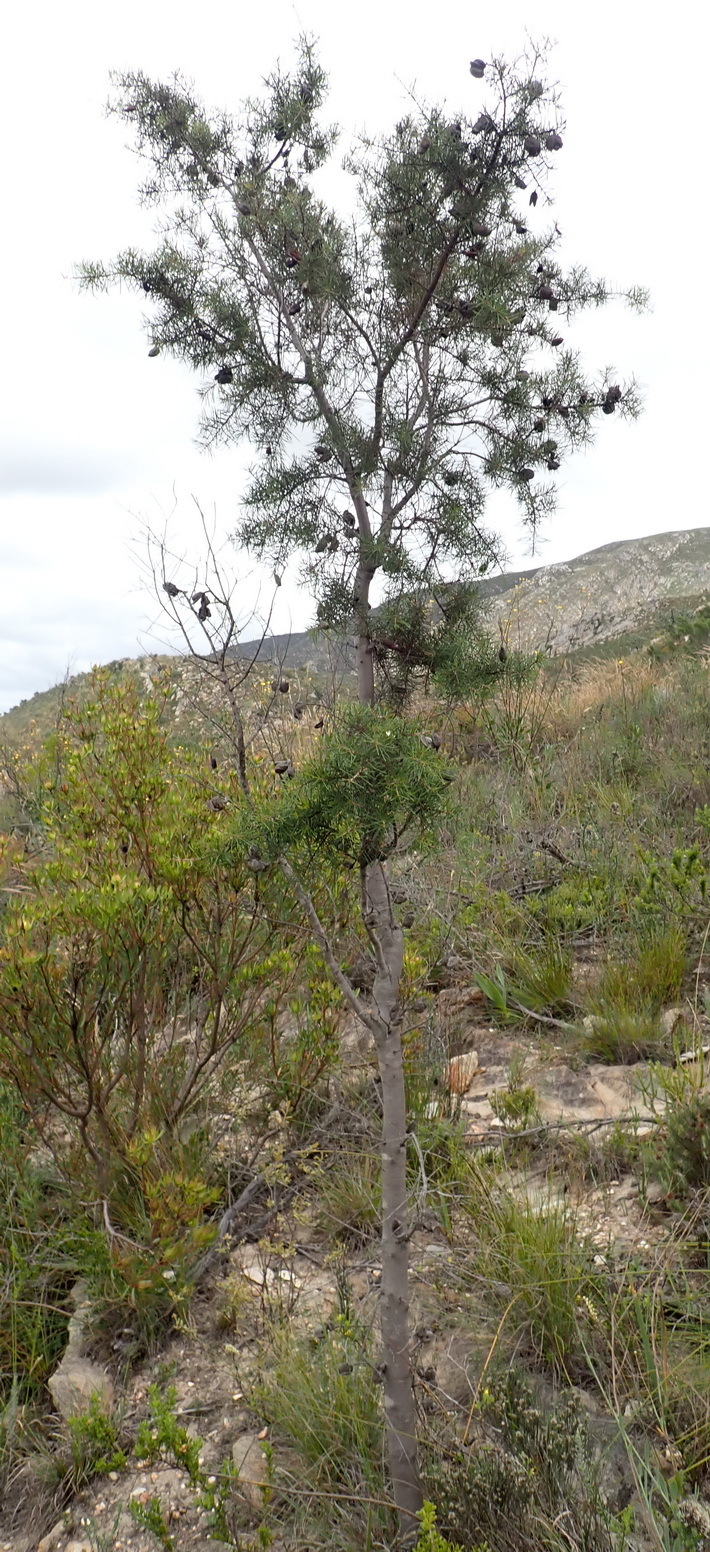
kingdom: Plantae
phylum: Tracheophyta
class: Magnoliopsida
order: Proteales
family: Proteaceae
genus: Hakea
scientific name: Hakea sericea
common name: Needle bush
